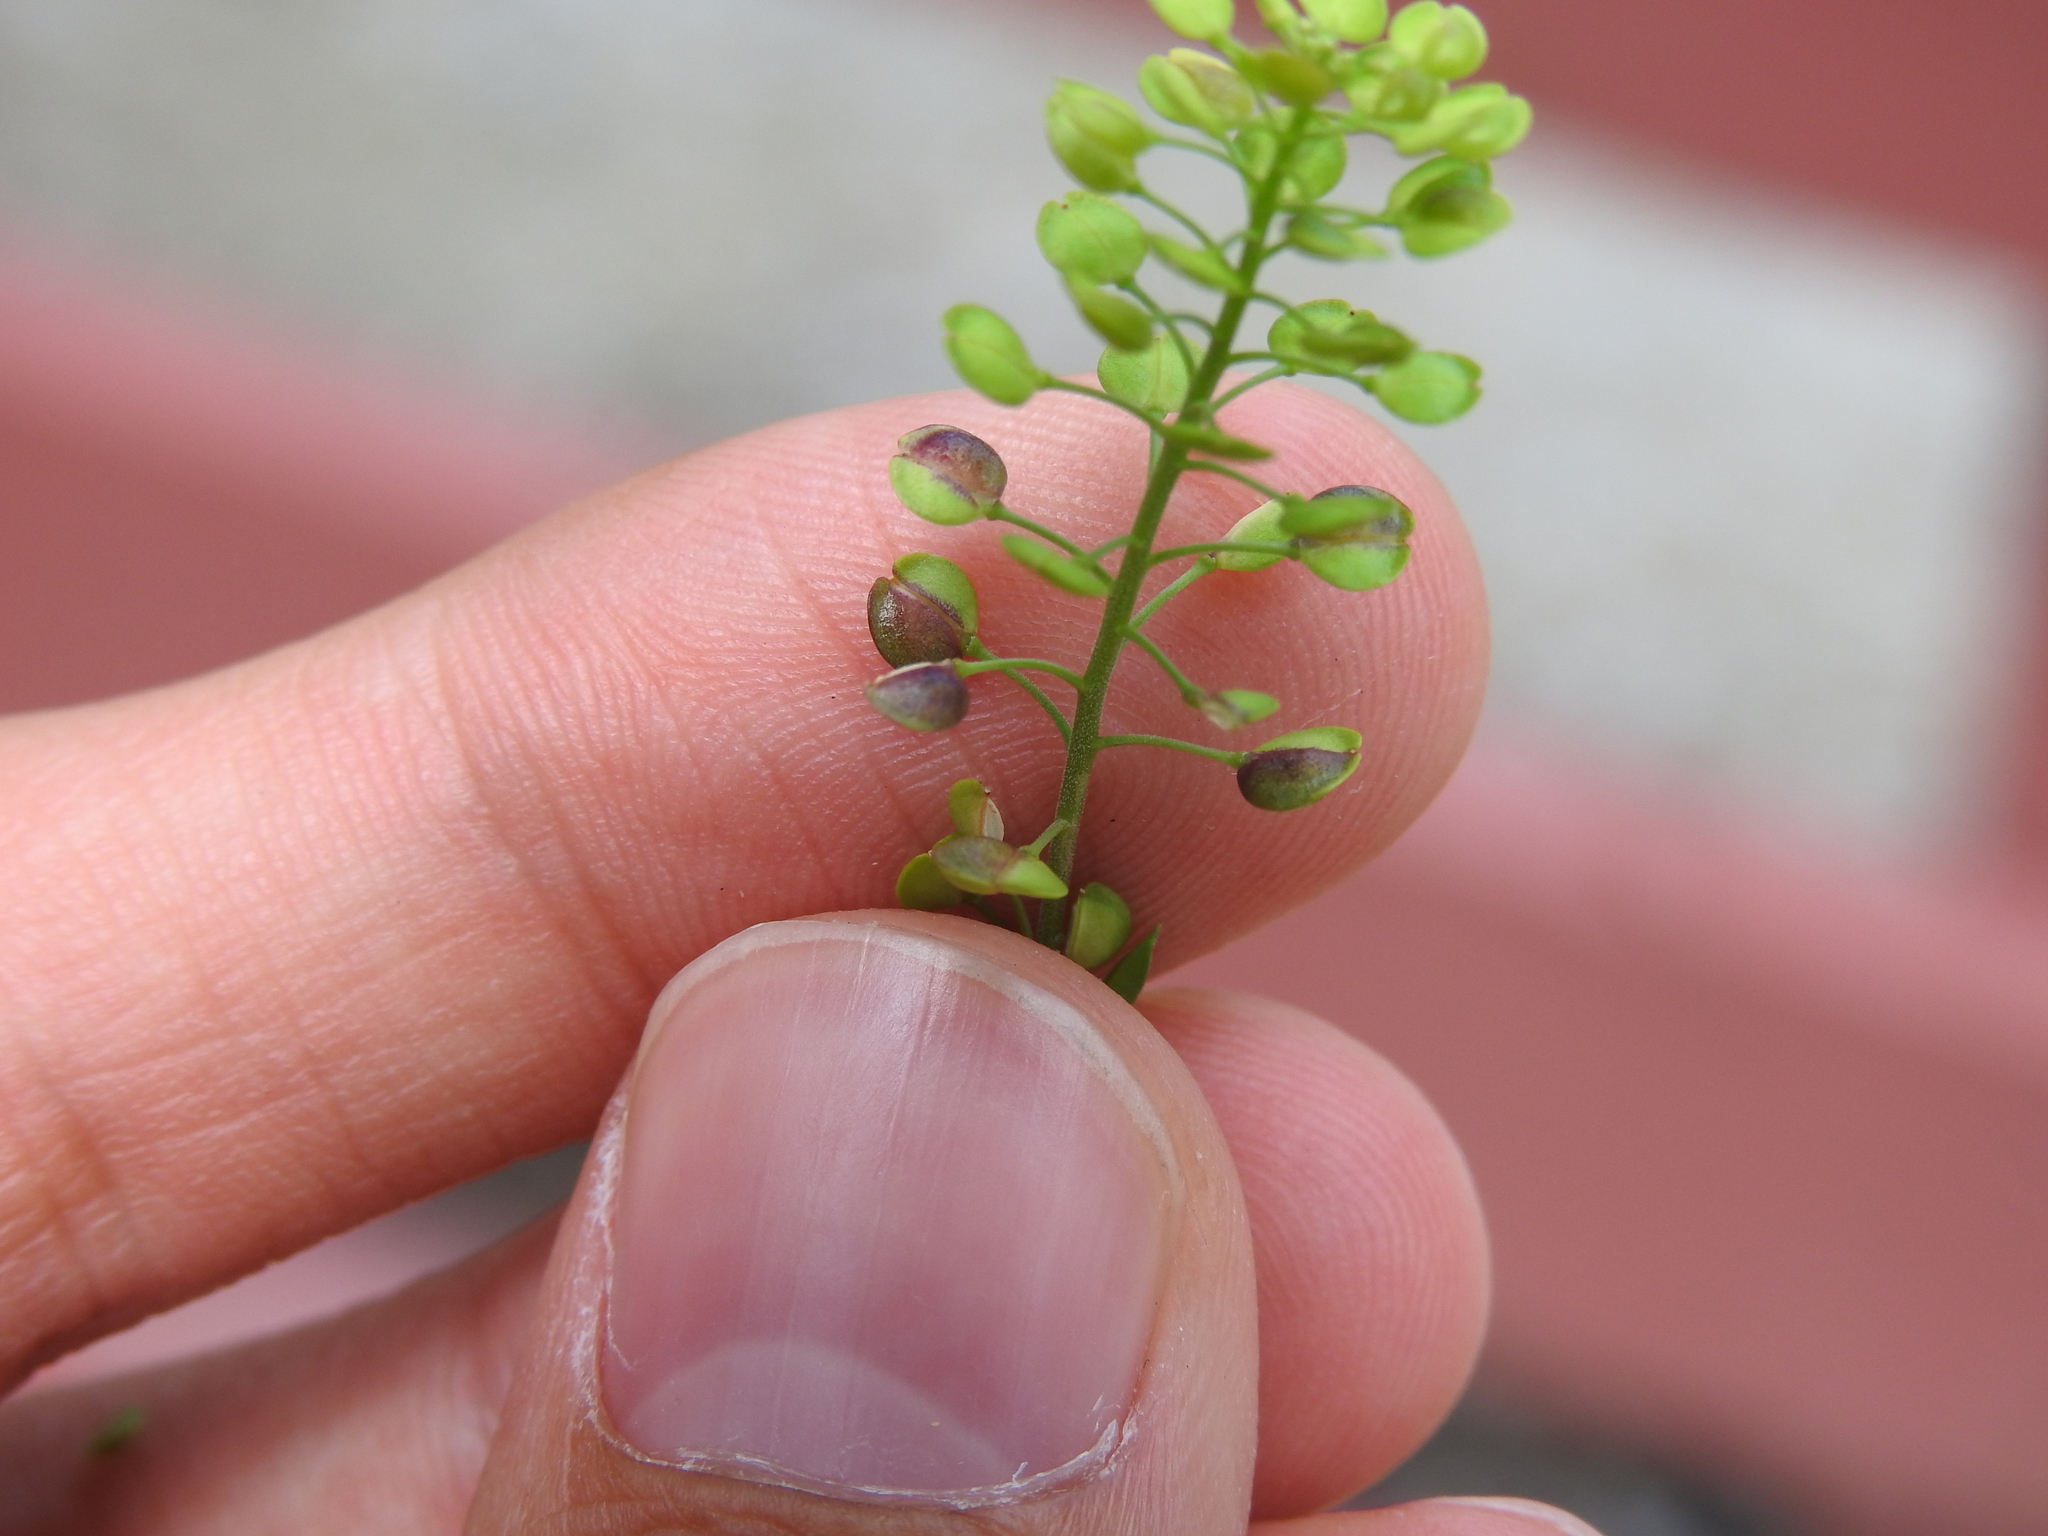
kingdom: Animalia
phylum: Arthropoda
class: Insecta
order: Diptera
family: Cecidomyiidae
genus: Dasineura
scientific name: Dasineura lepidii
